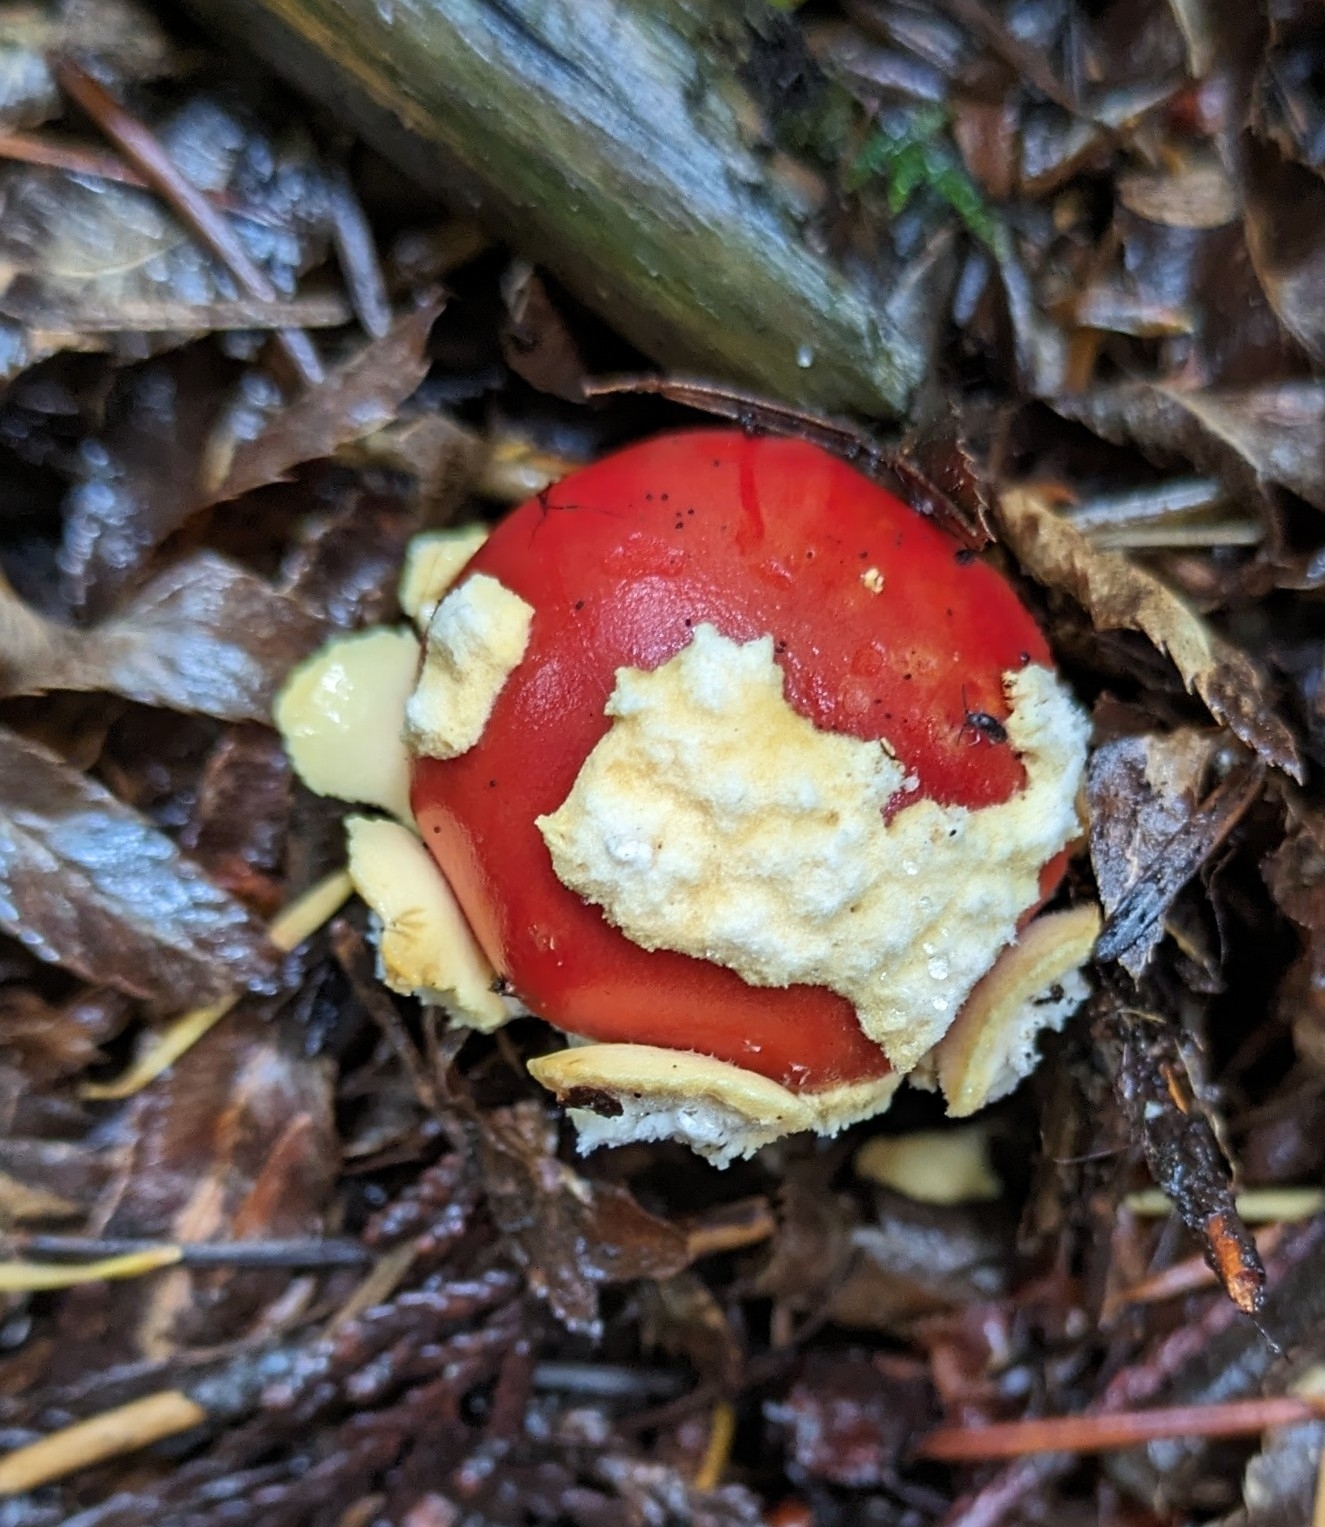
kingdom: Fungi
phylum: Basidiomycota
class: Agaricomycetes
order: Agaricales
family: Amanitaceae
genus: Amanita
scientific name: Amanita muscaria
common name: Fly agaric
